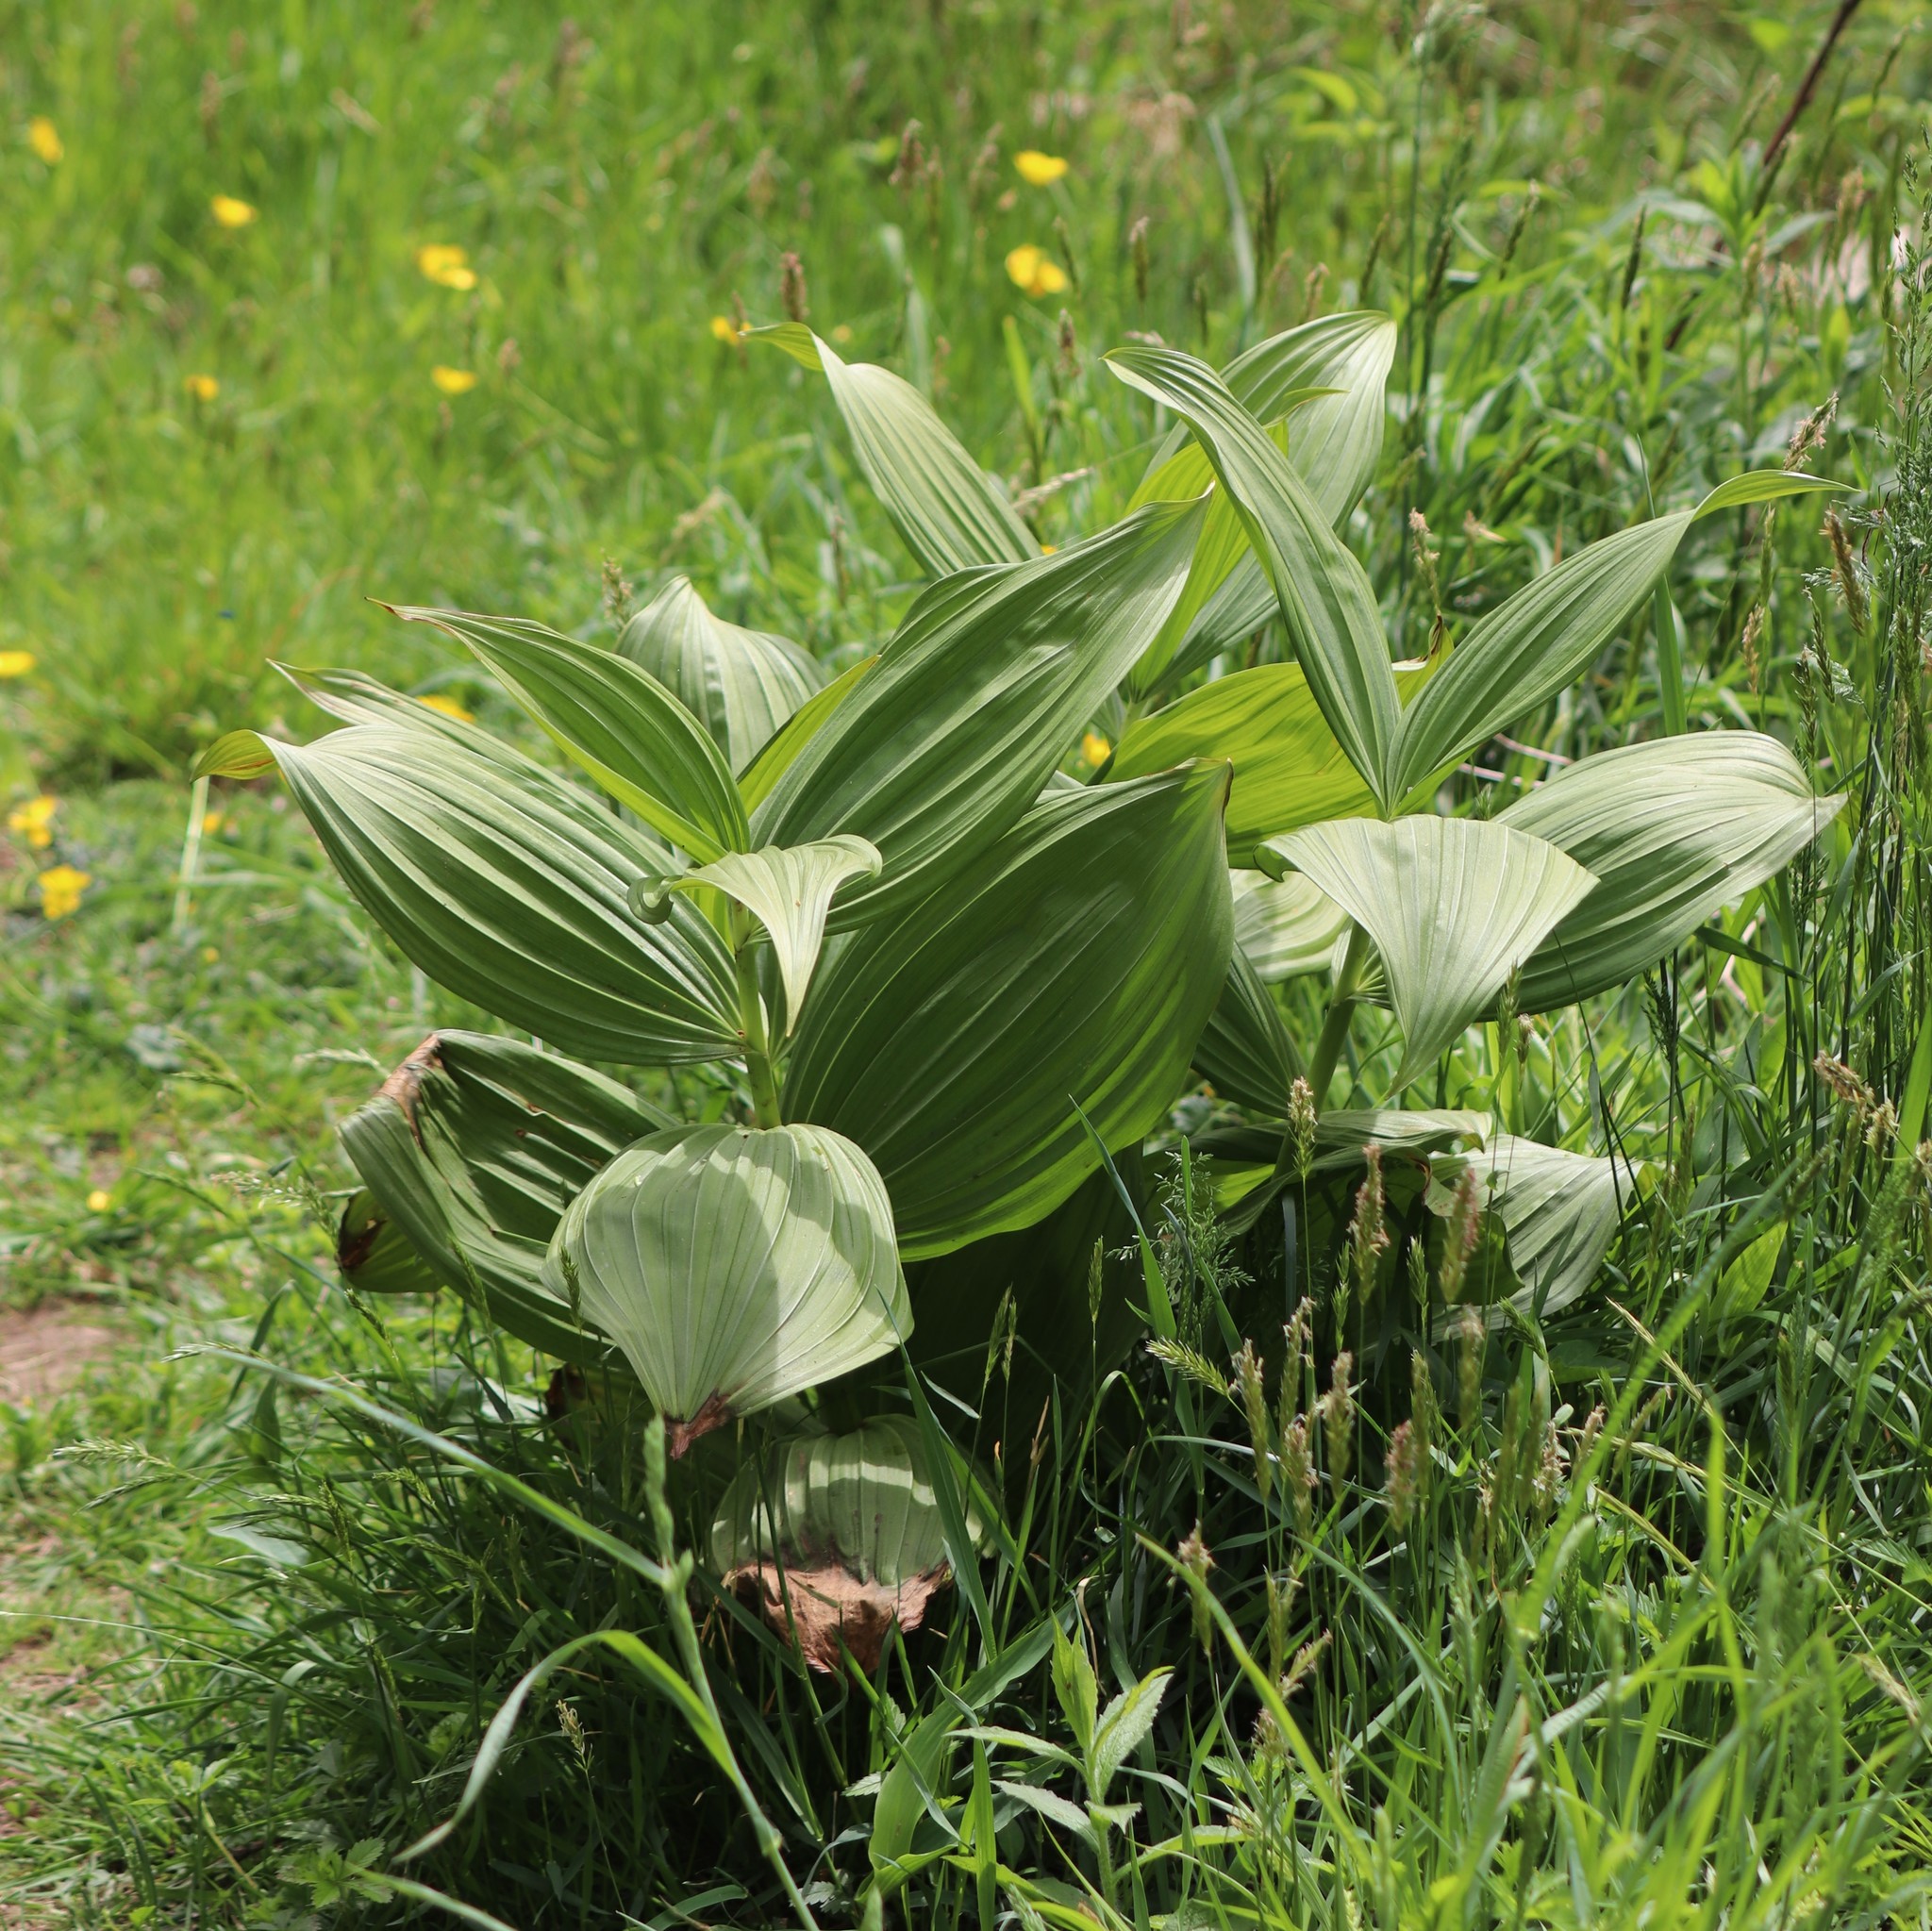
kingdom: Plantae
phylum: Tracheophyta
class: Liliopsida
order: Liliales
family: Melanthiaceae
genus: Veratrum
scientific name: Veratrum viride
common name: American false hellebore
